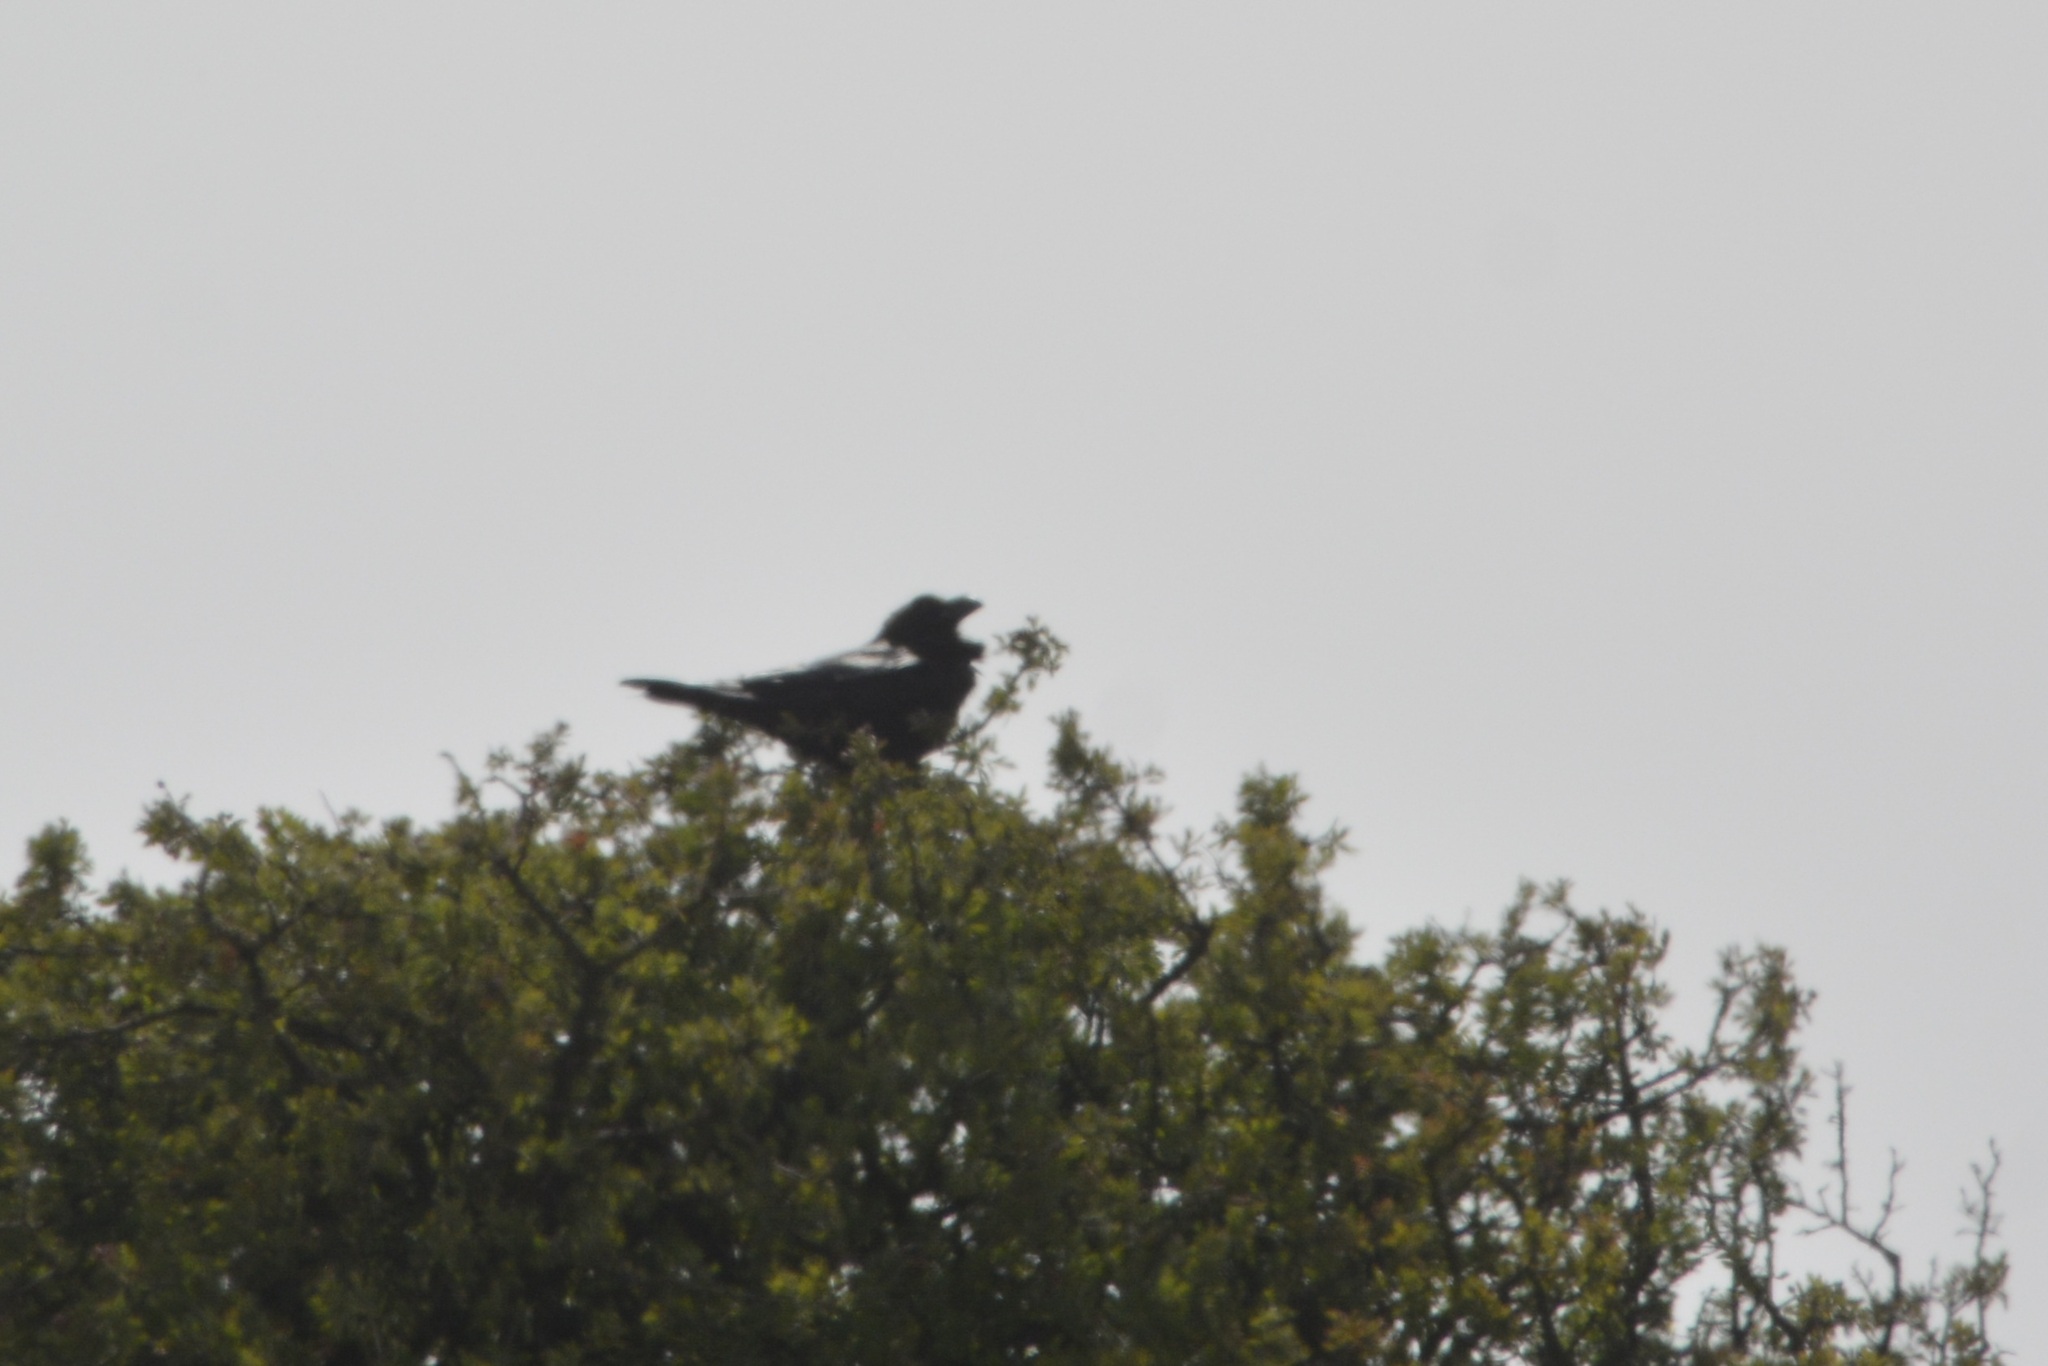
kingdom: Animalia
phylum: Chordata
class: Aves
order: Passeriformes
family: Corvidae
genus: Corvus
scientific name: Corvus corax
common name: Common raven
